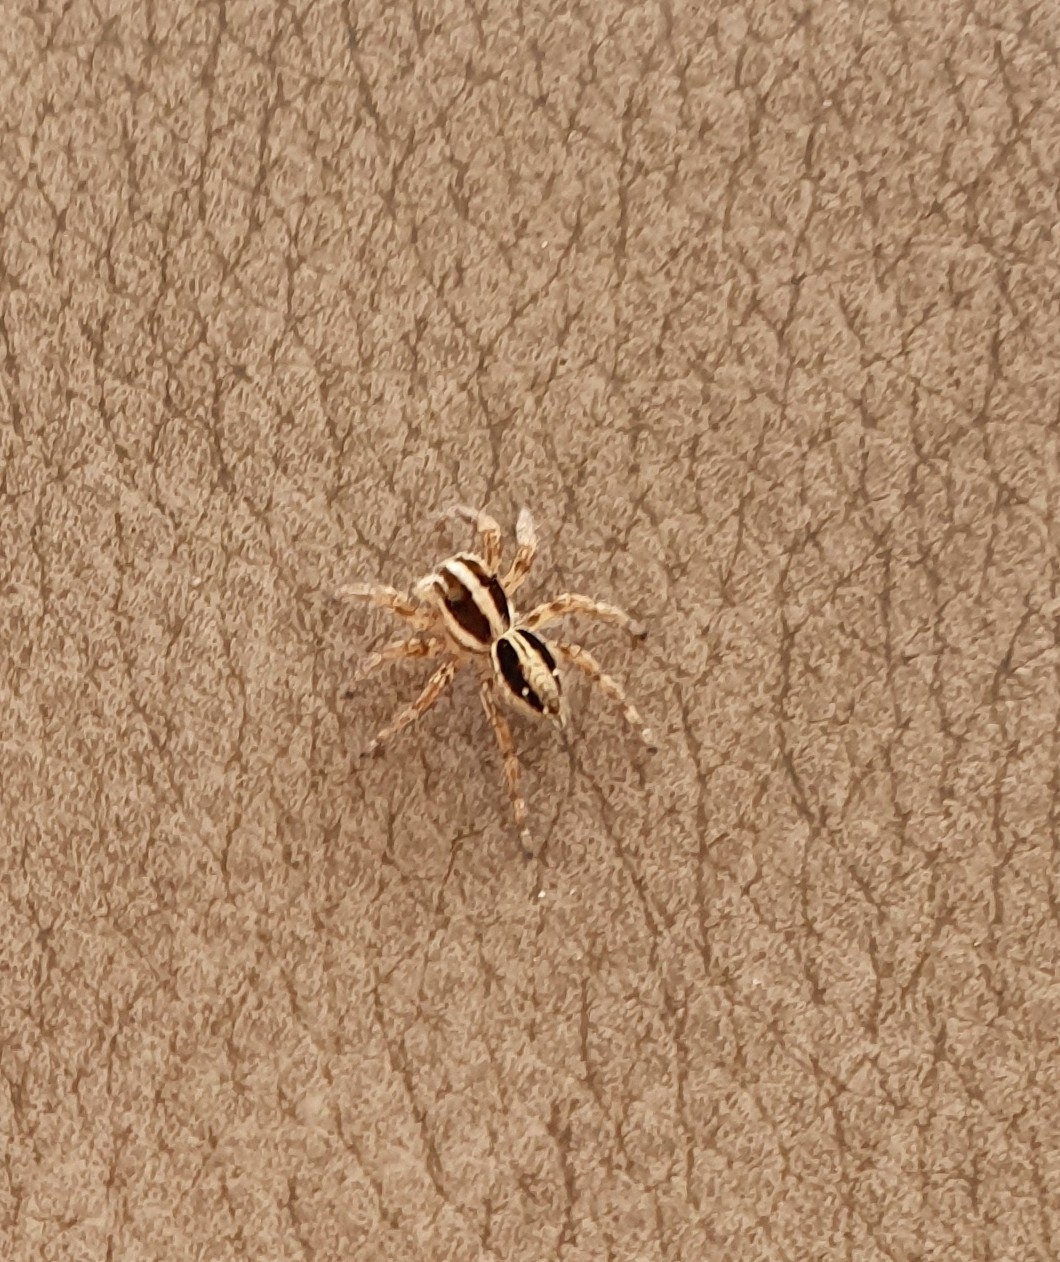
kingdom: Animalia
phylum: Arthropoda
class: Arachnida
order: Araneae
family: Salticidae
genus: Plexippus
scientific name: Plexippus paykulli
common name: Pantropical jumper
